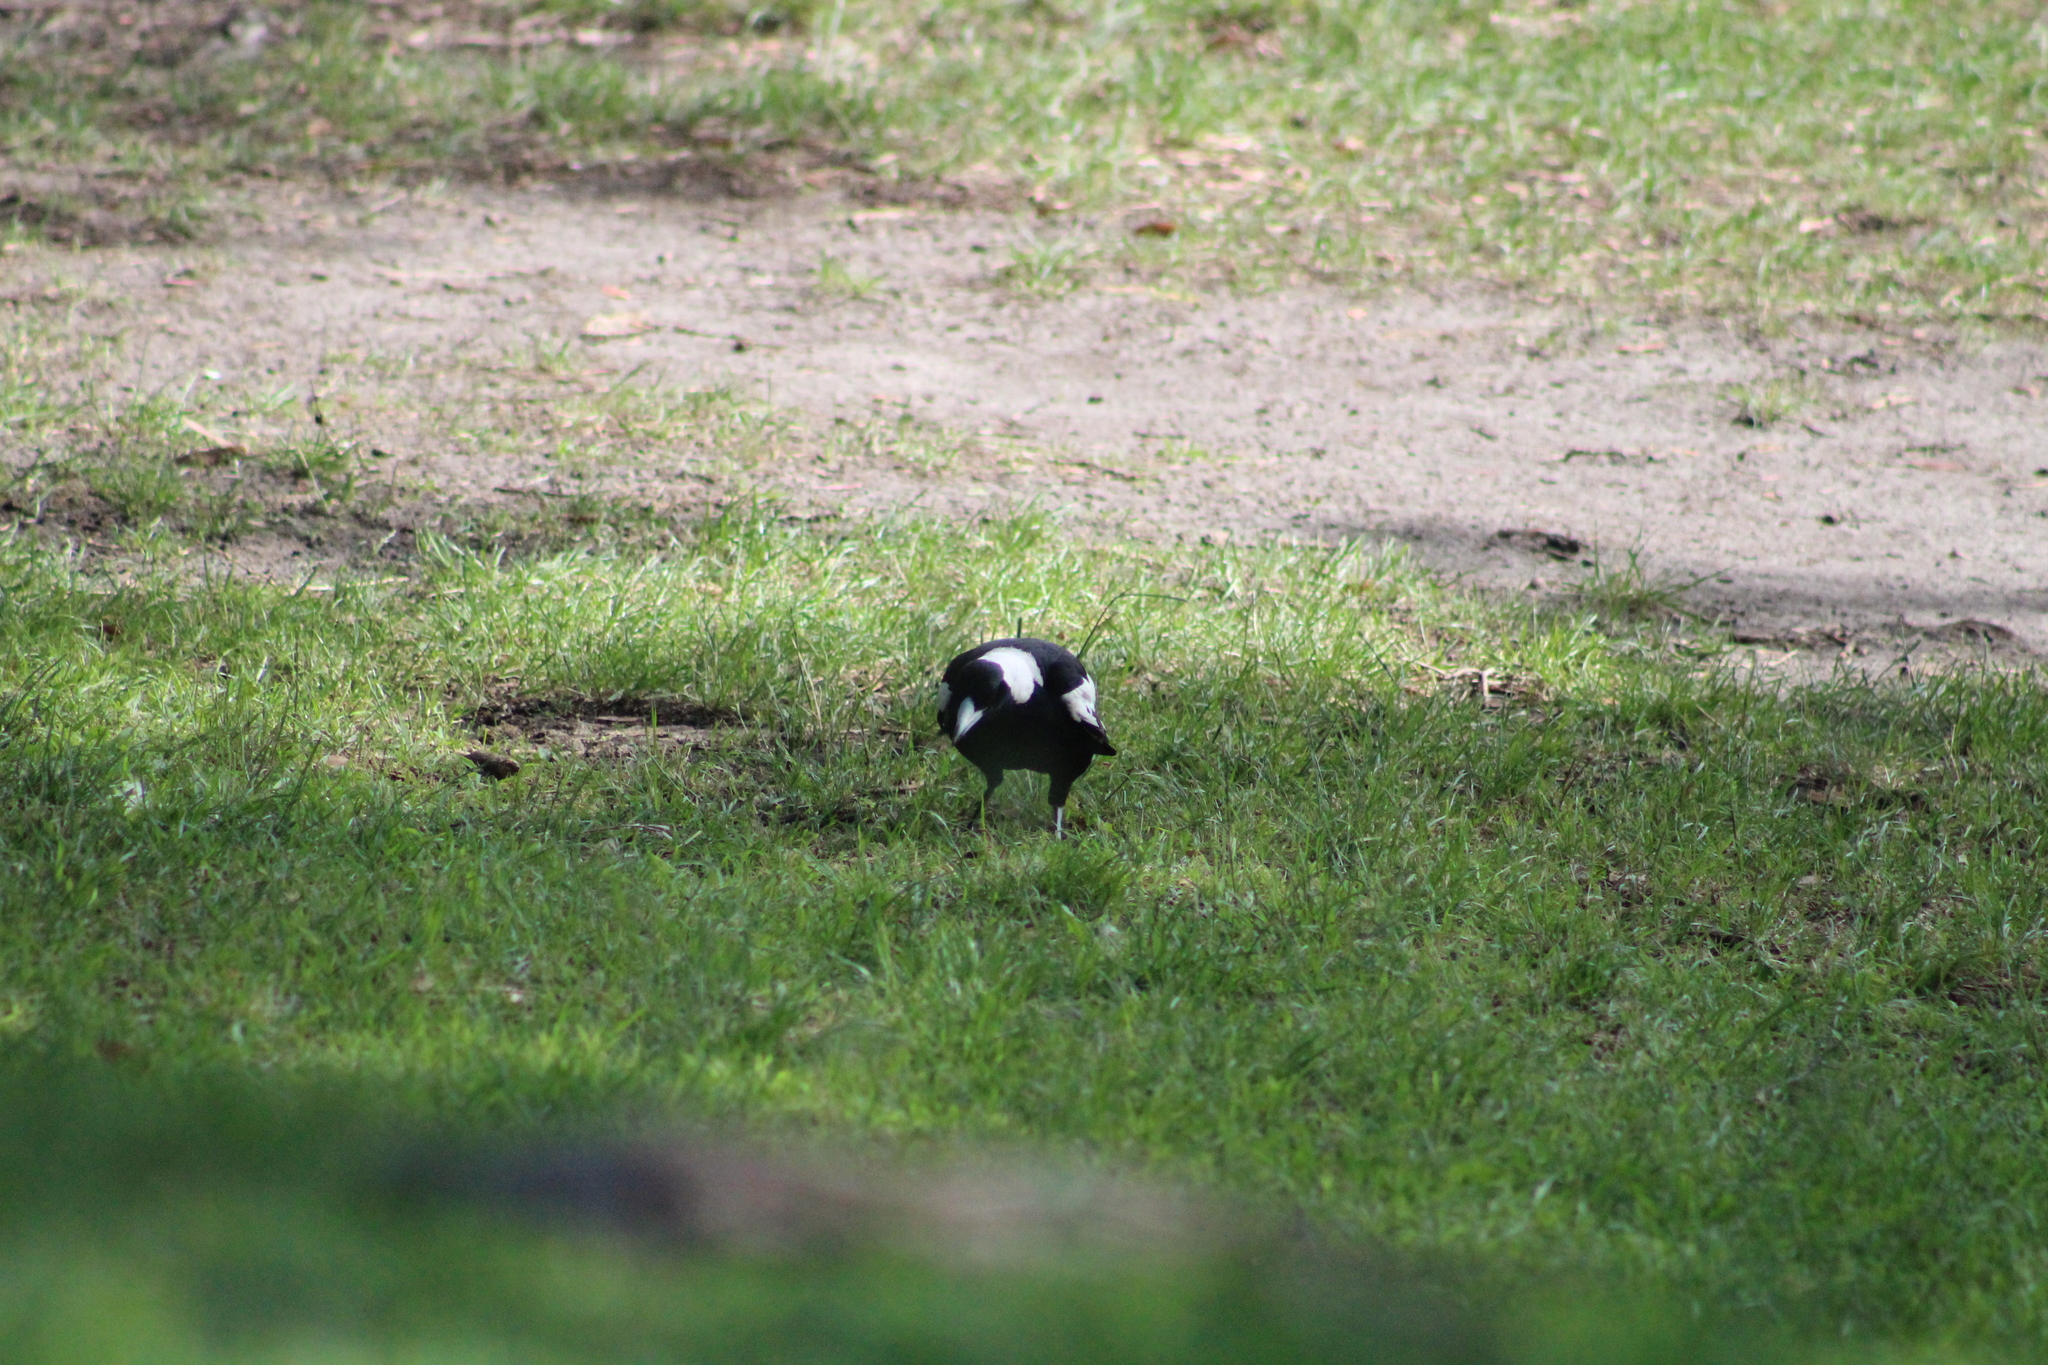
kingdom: Animalia
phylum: Chordata
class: Aves
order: Passeriformes
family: Cracticidae
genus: Gymnorhina
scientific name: Gymnorhina tibicen
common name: Australian magpie
